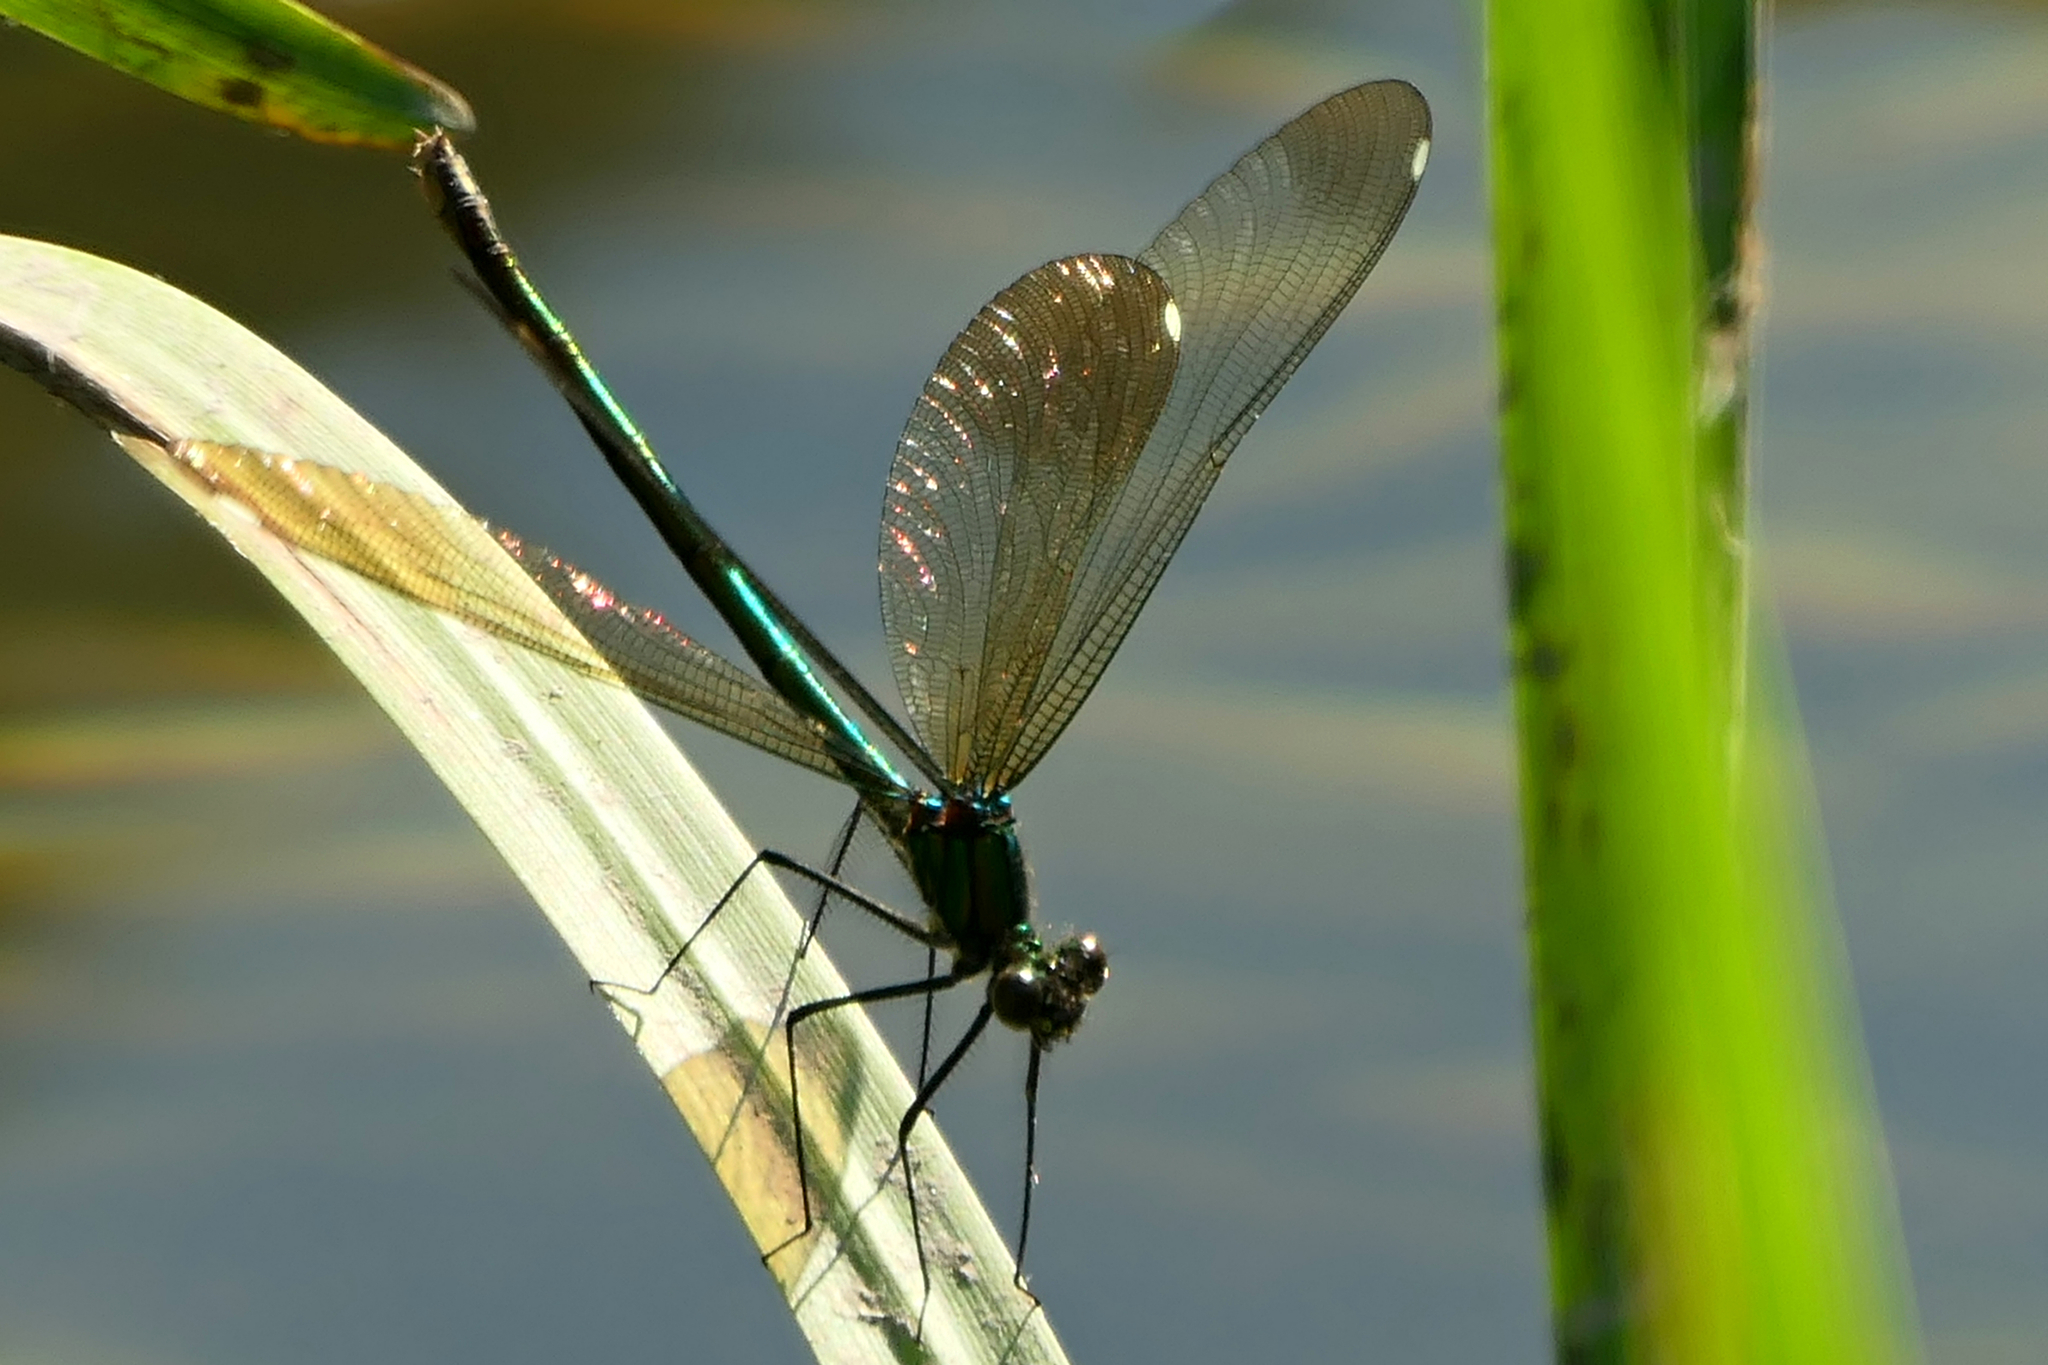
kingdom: Animalia
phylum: Arthropoda
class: Insecta
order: Odonata
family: Calopterygidae
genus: Calopteryx
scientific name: Calopteryx aequabilis
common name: River jewelwing
